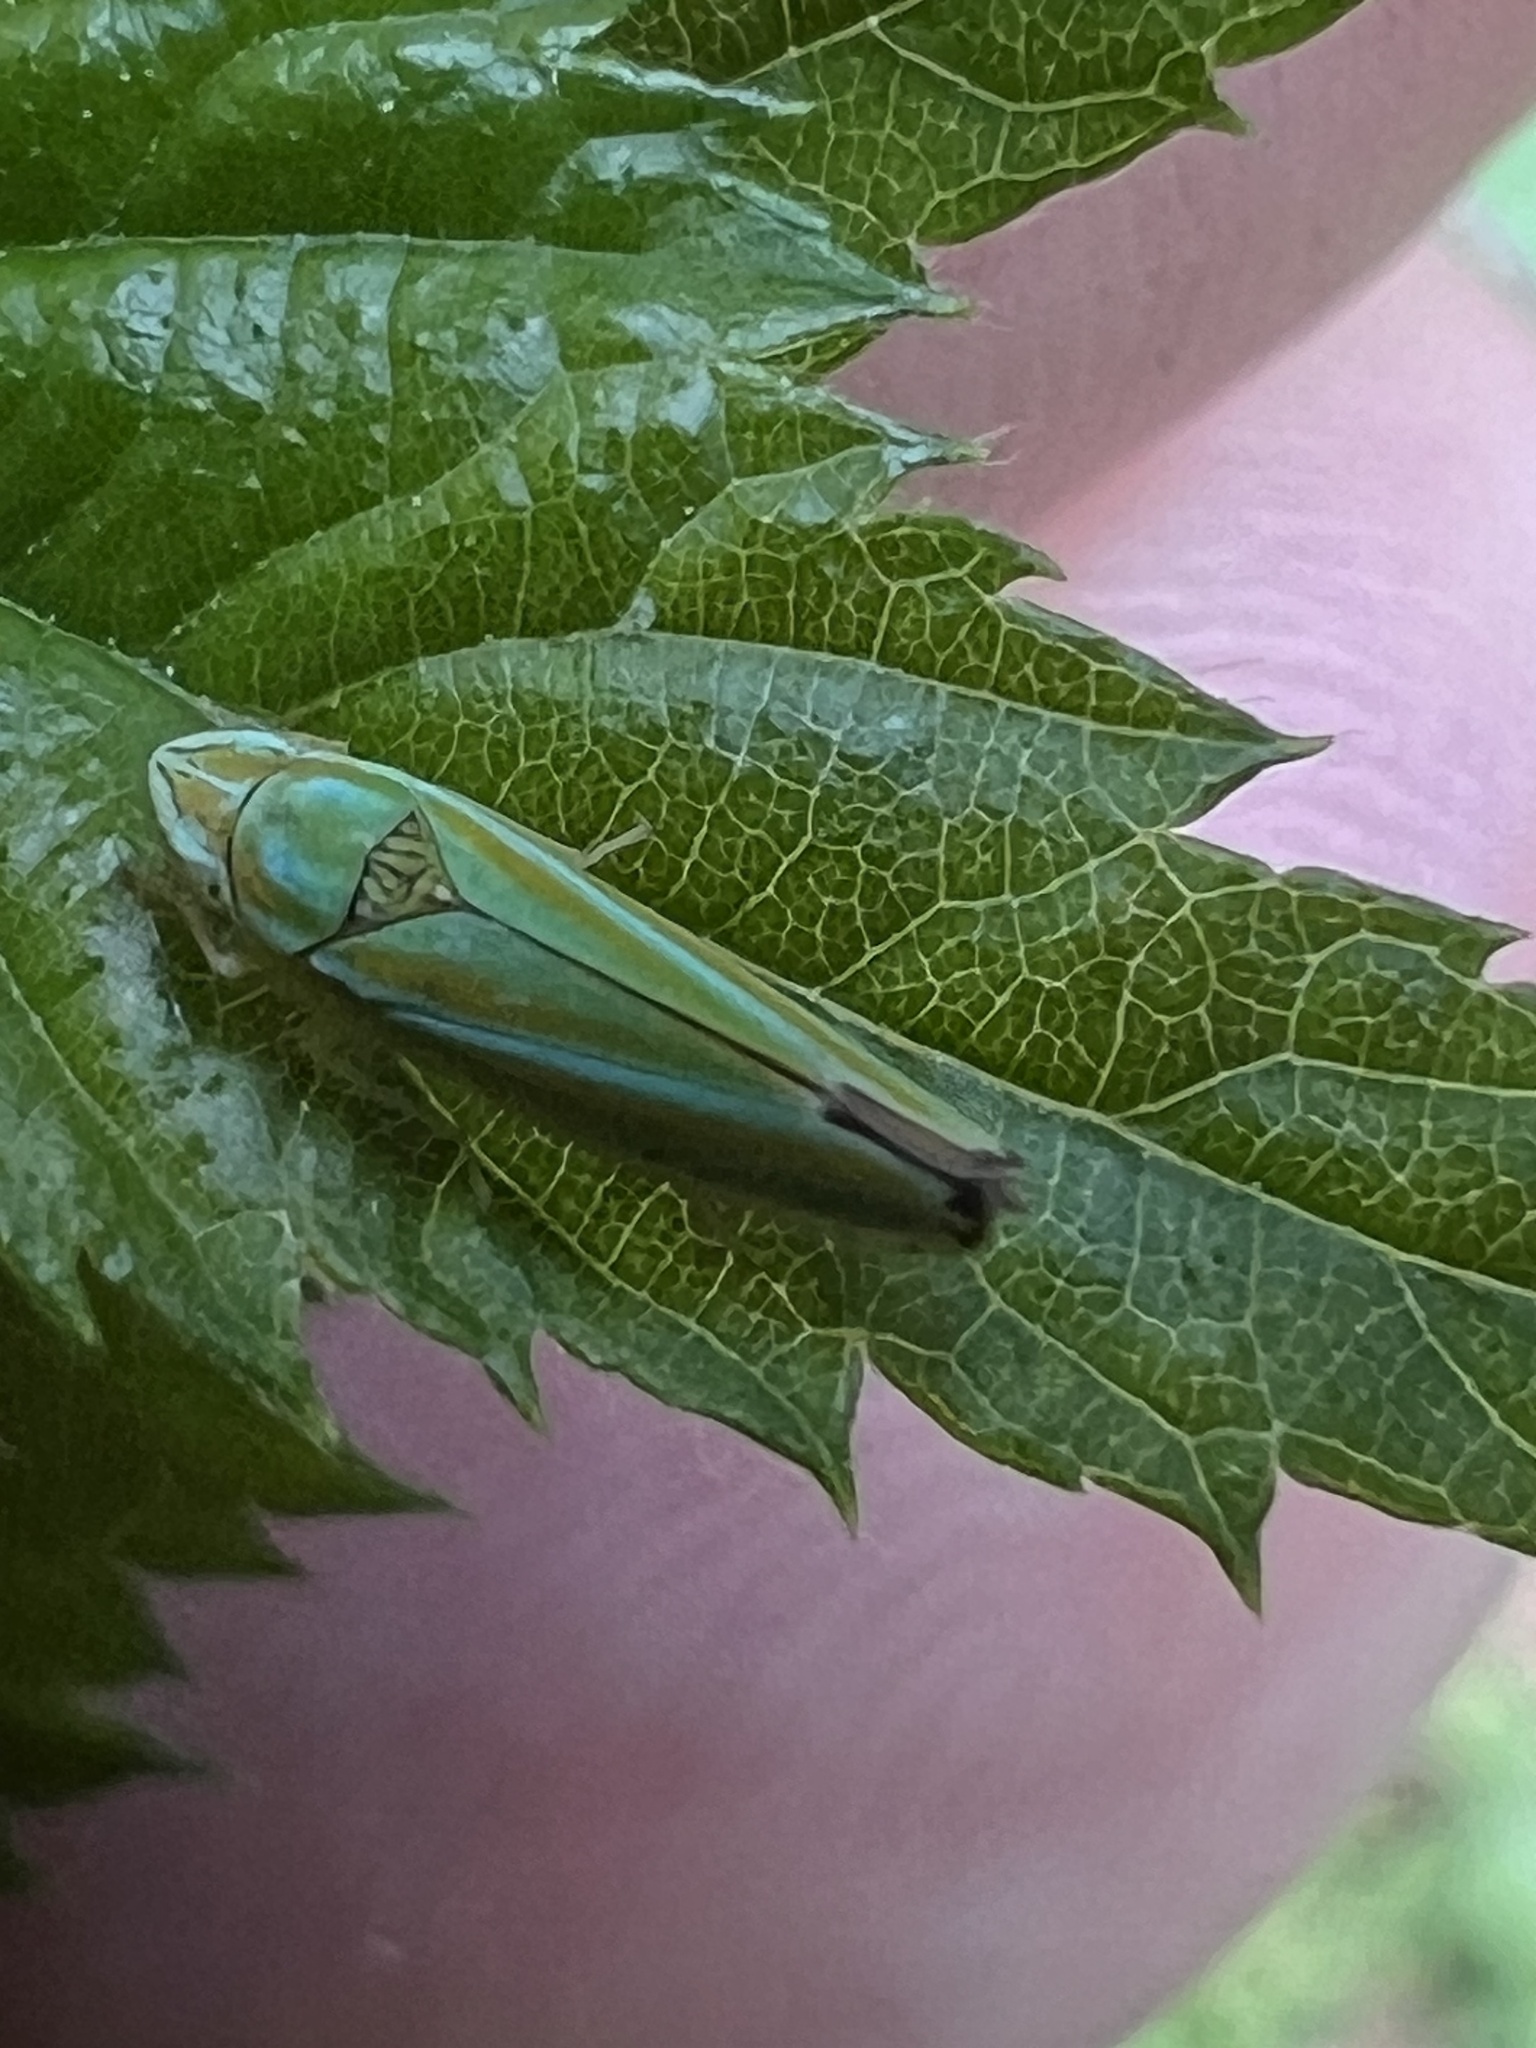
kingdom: Animalia
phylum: Arthropoda
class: Insecta
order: Hemiptera
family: Cicadellidae
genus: Graphocephala
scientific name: Graphocephala versuta
